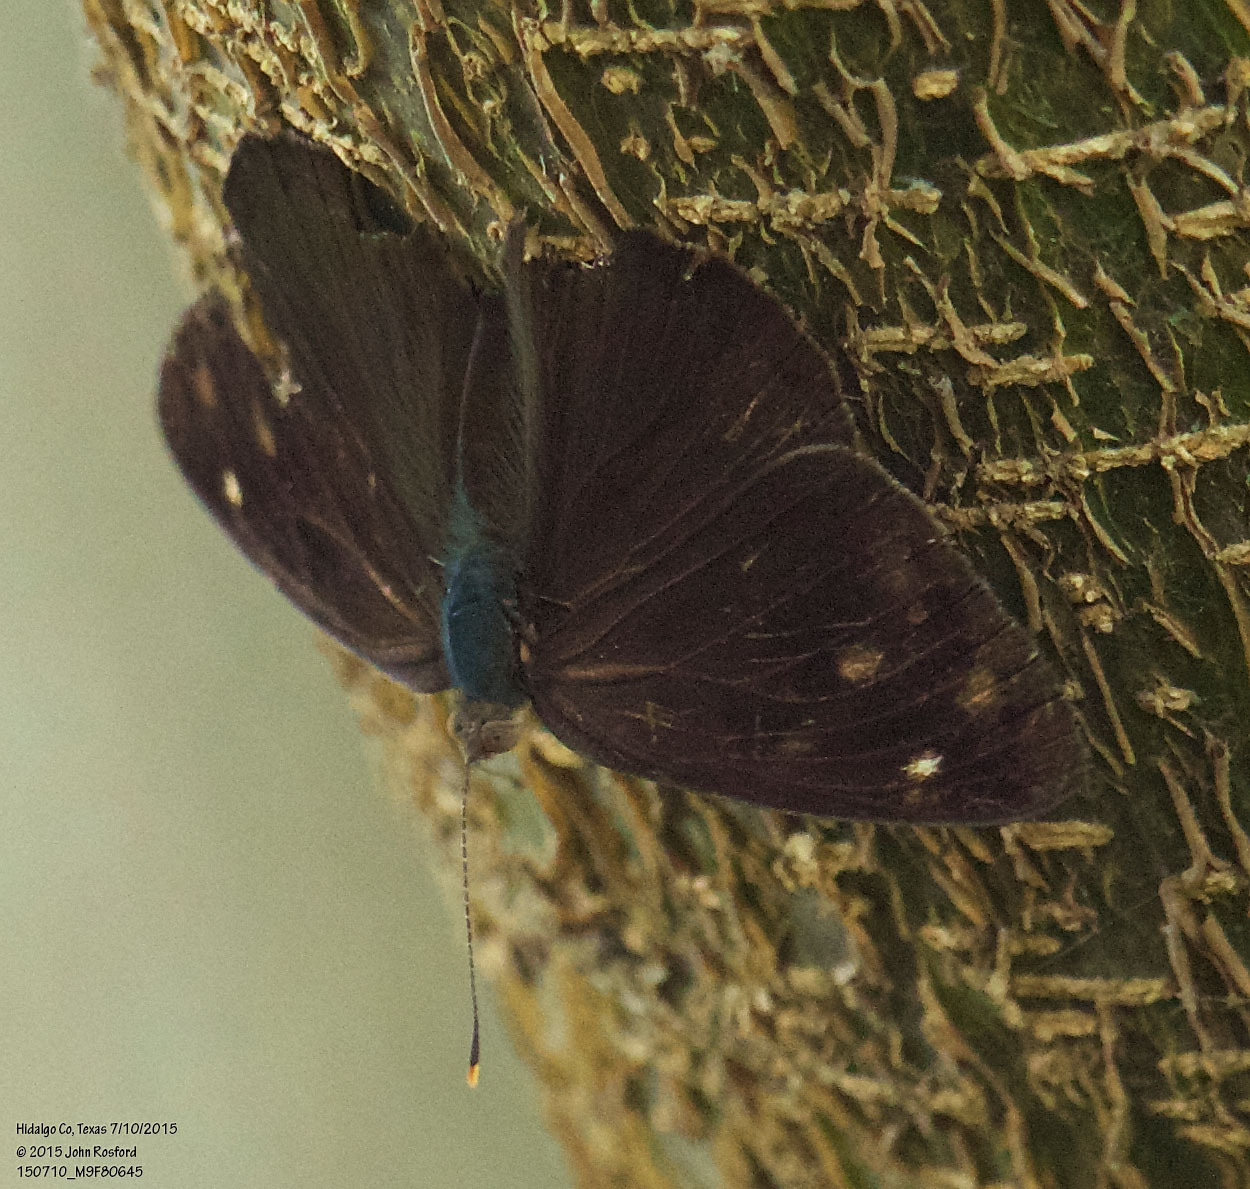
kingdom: Animalia
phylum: Arthropoda
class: Insecta
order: Lepidoptera
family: Nymphalidae
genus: Eunica
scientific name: Eunica monima
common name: Dingy purplewing
